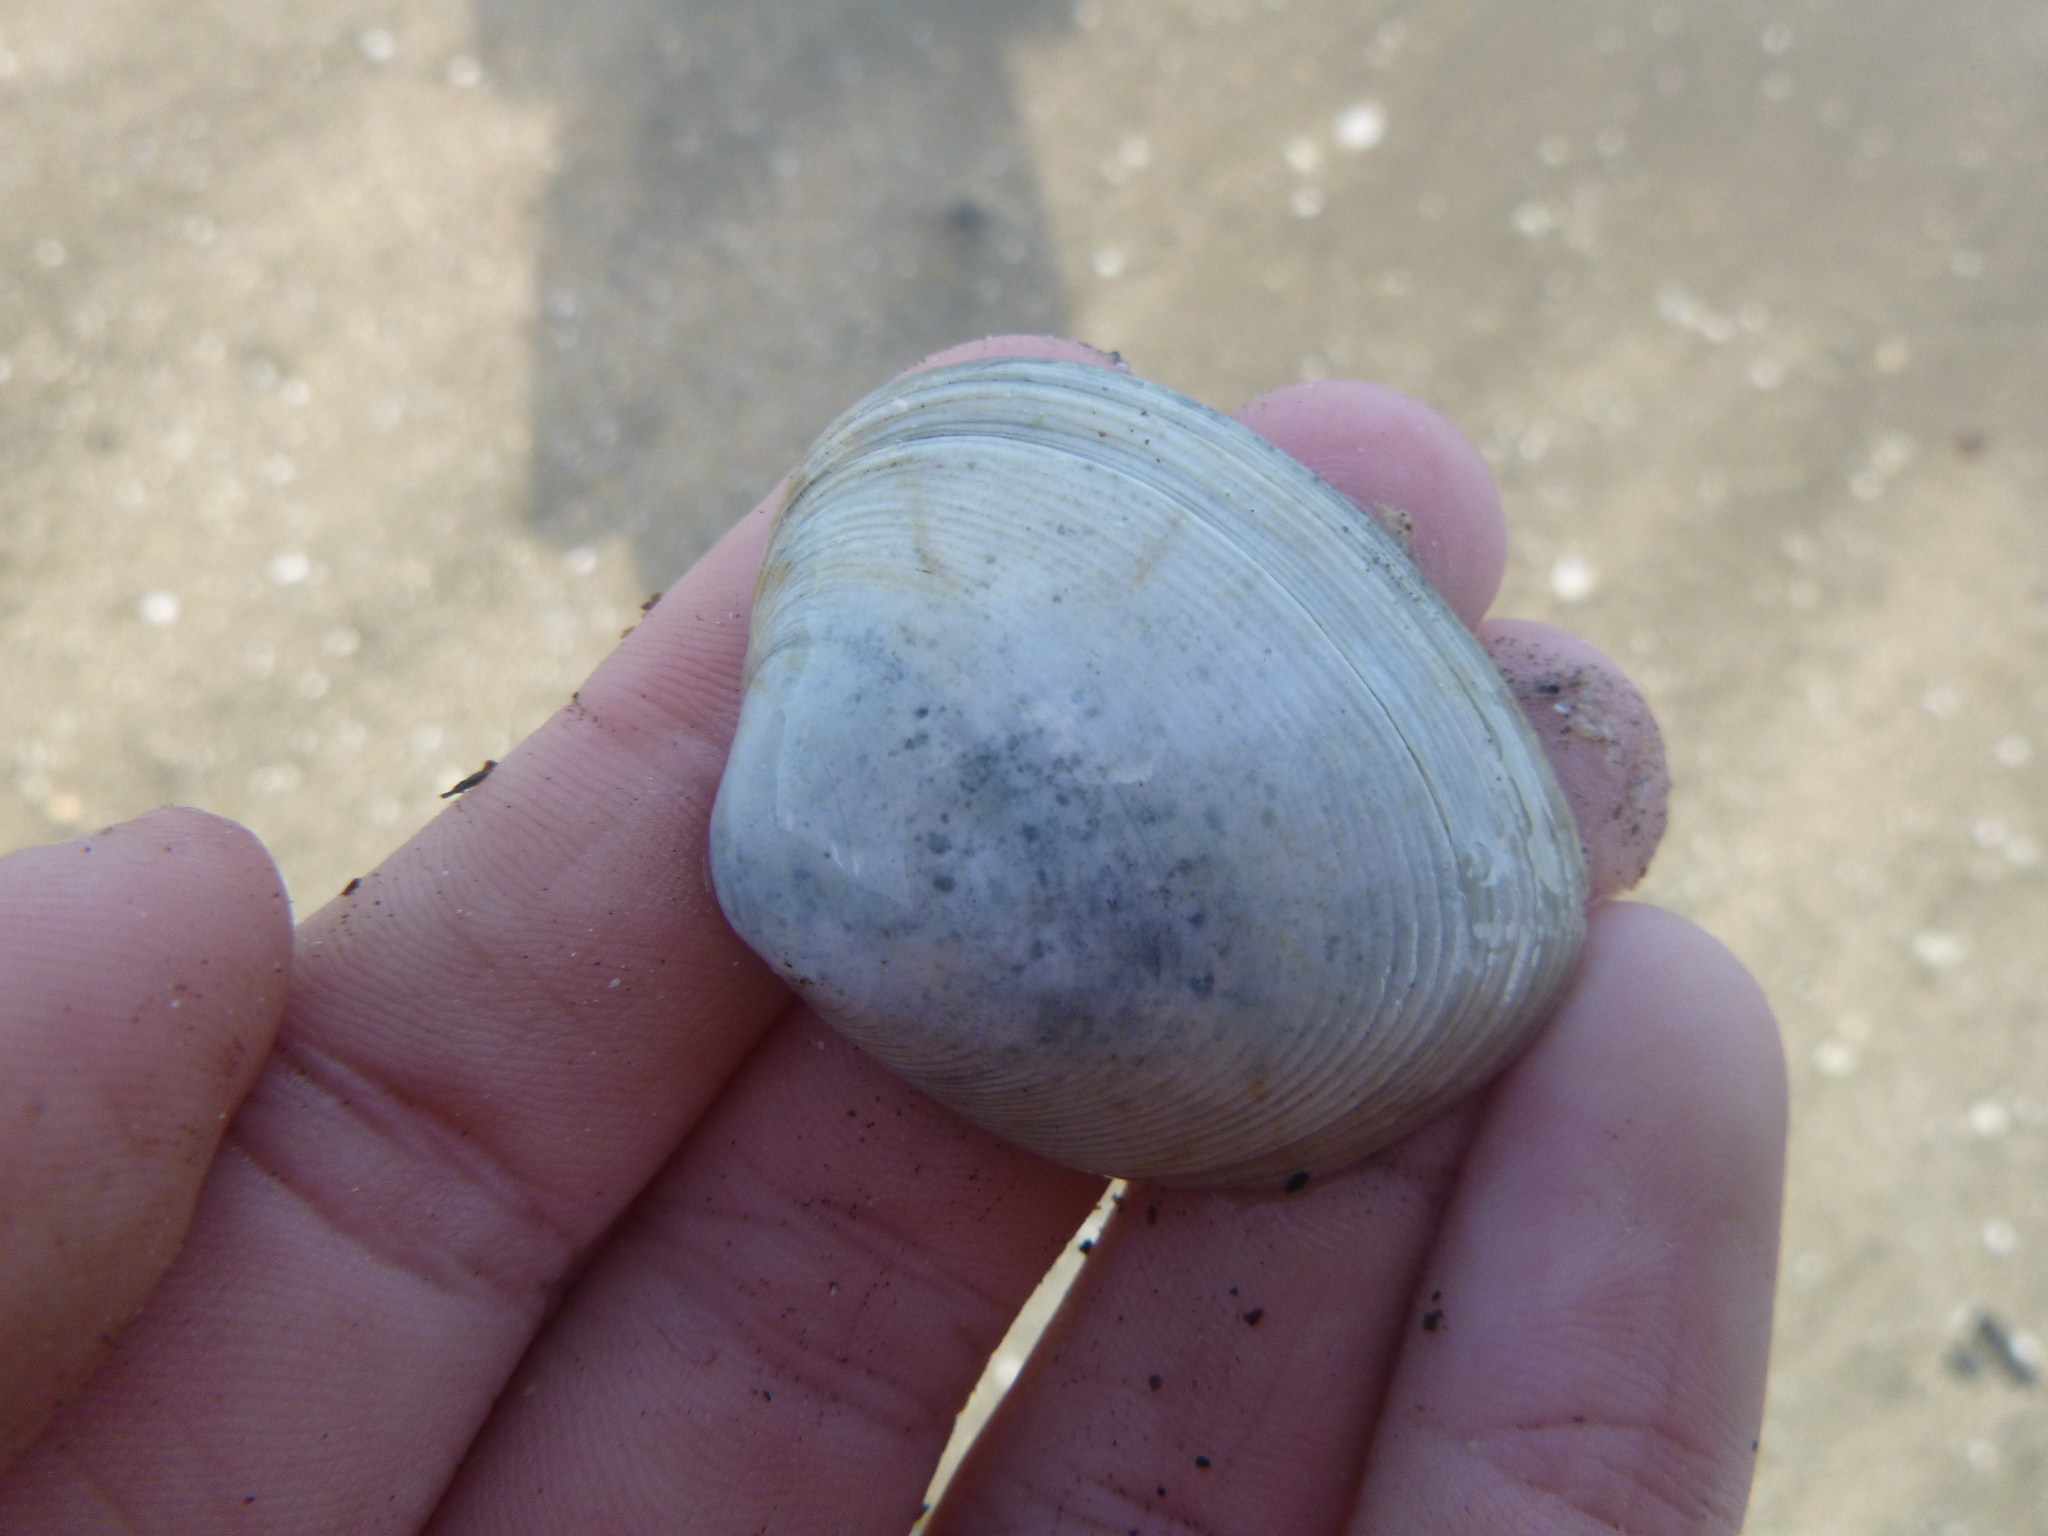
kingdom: Animalia
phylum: Mollusca
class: Bivalvia
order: Venerida
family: Veneridae
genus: Venerupis
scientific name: Venerupis largillierti
